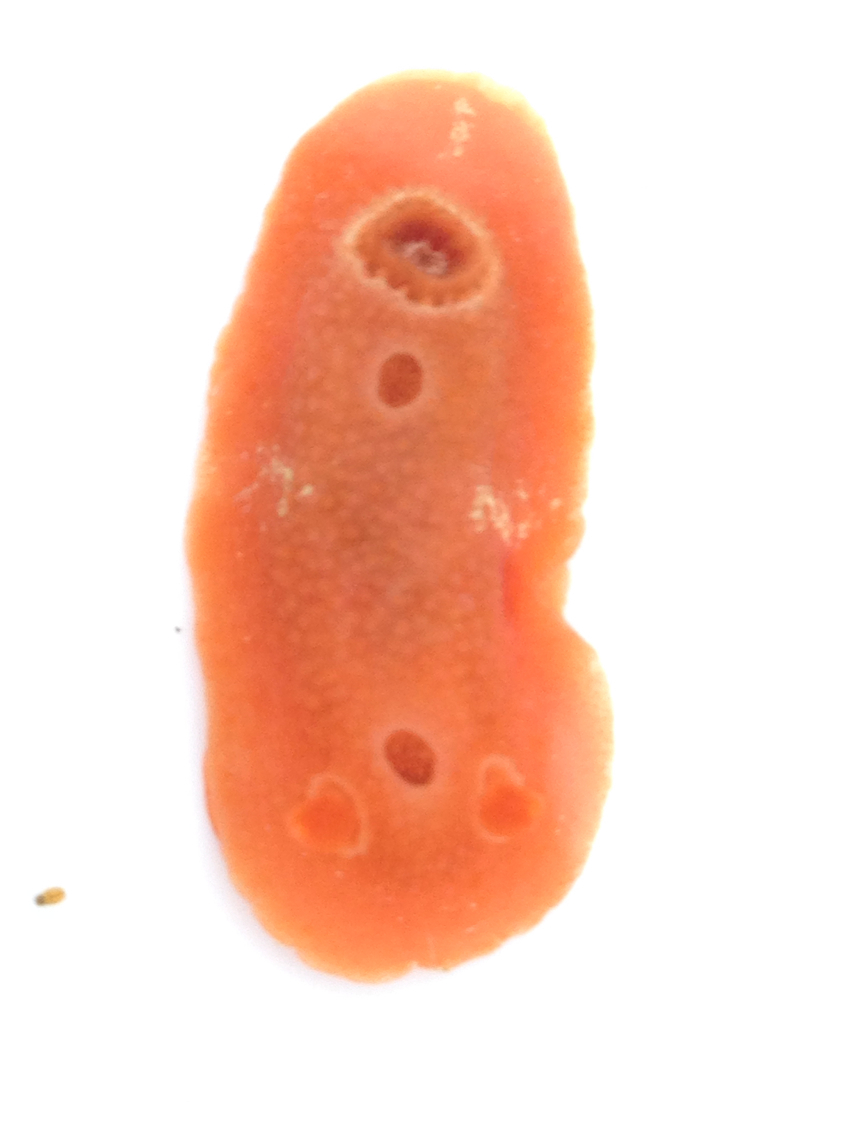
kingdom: Animalia
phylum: Mollusca
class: Gastropoda
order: Nudibranchia
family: Cadlinidae
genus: Aldisa
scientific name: Aldisa sanguinea
